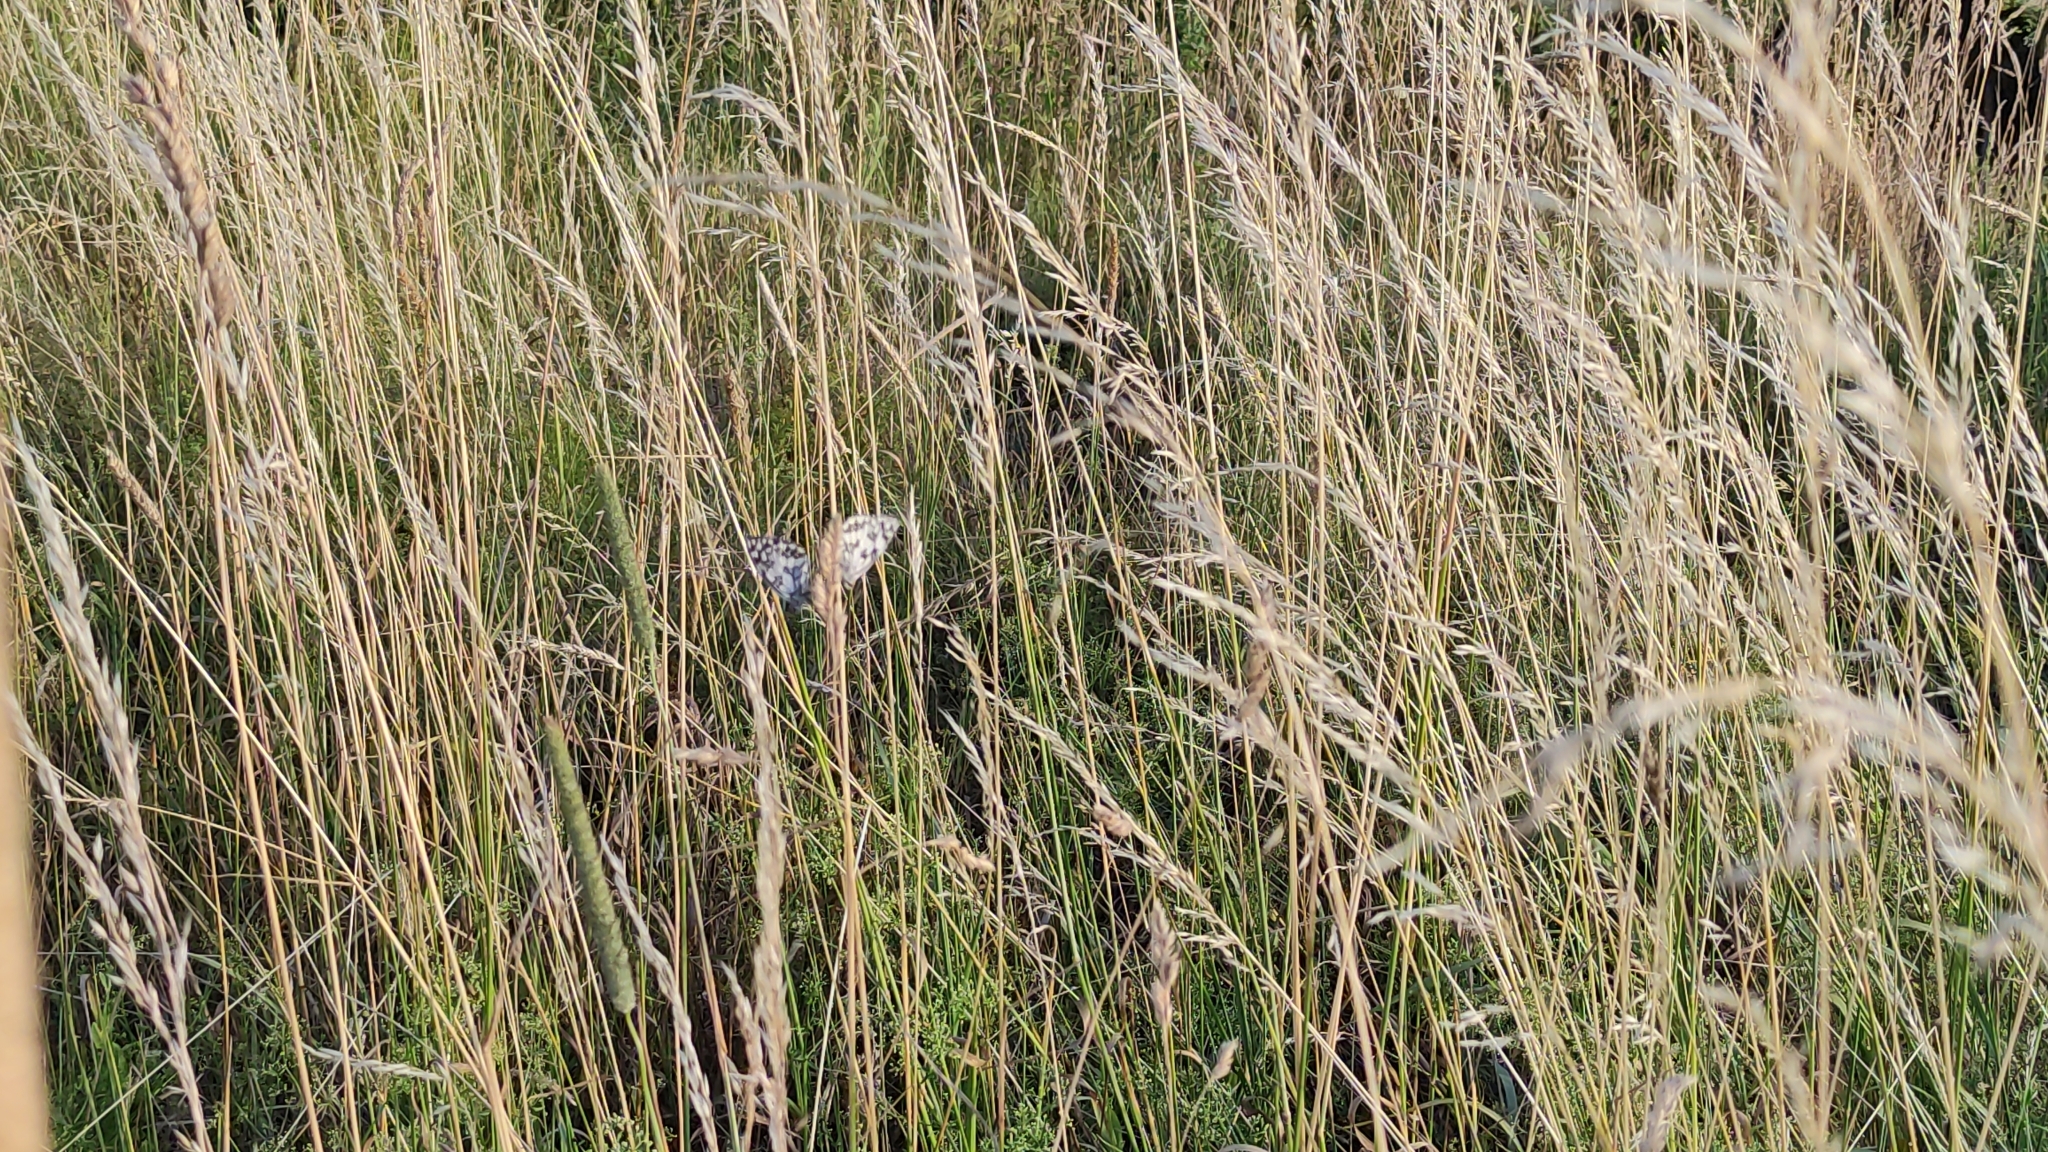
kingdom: Animalia
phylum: Arthropoda
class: Insecta
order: Lepidoptera
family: Nymphalidae
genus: Melanargia
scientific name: Melanargia galathea
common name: Marbled white
